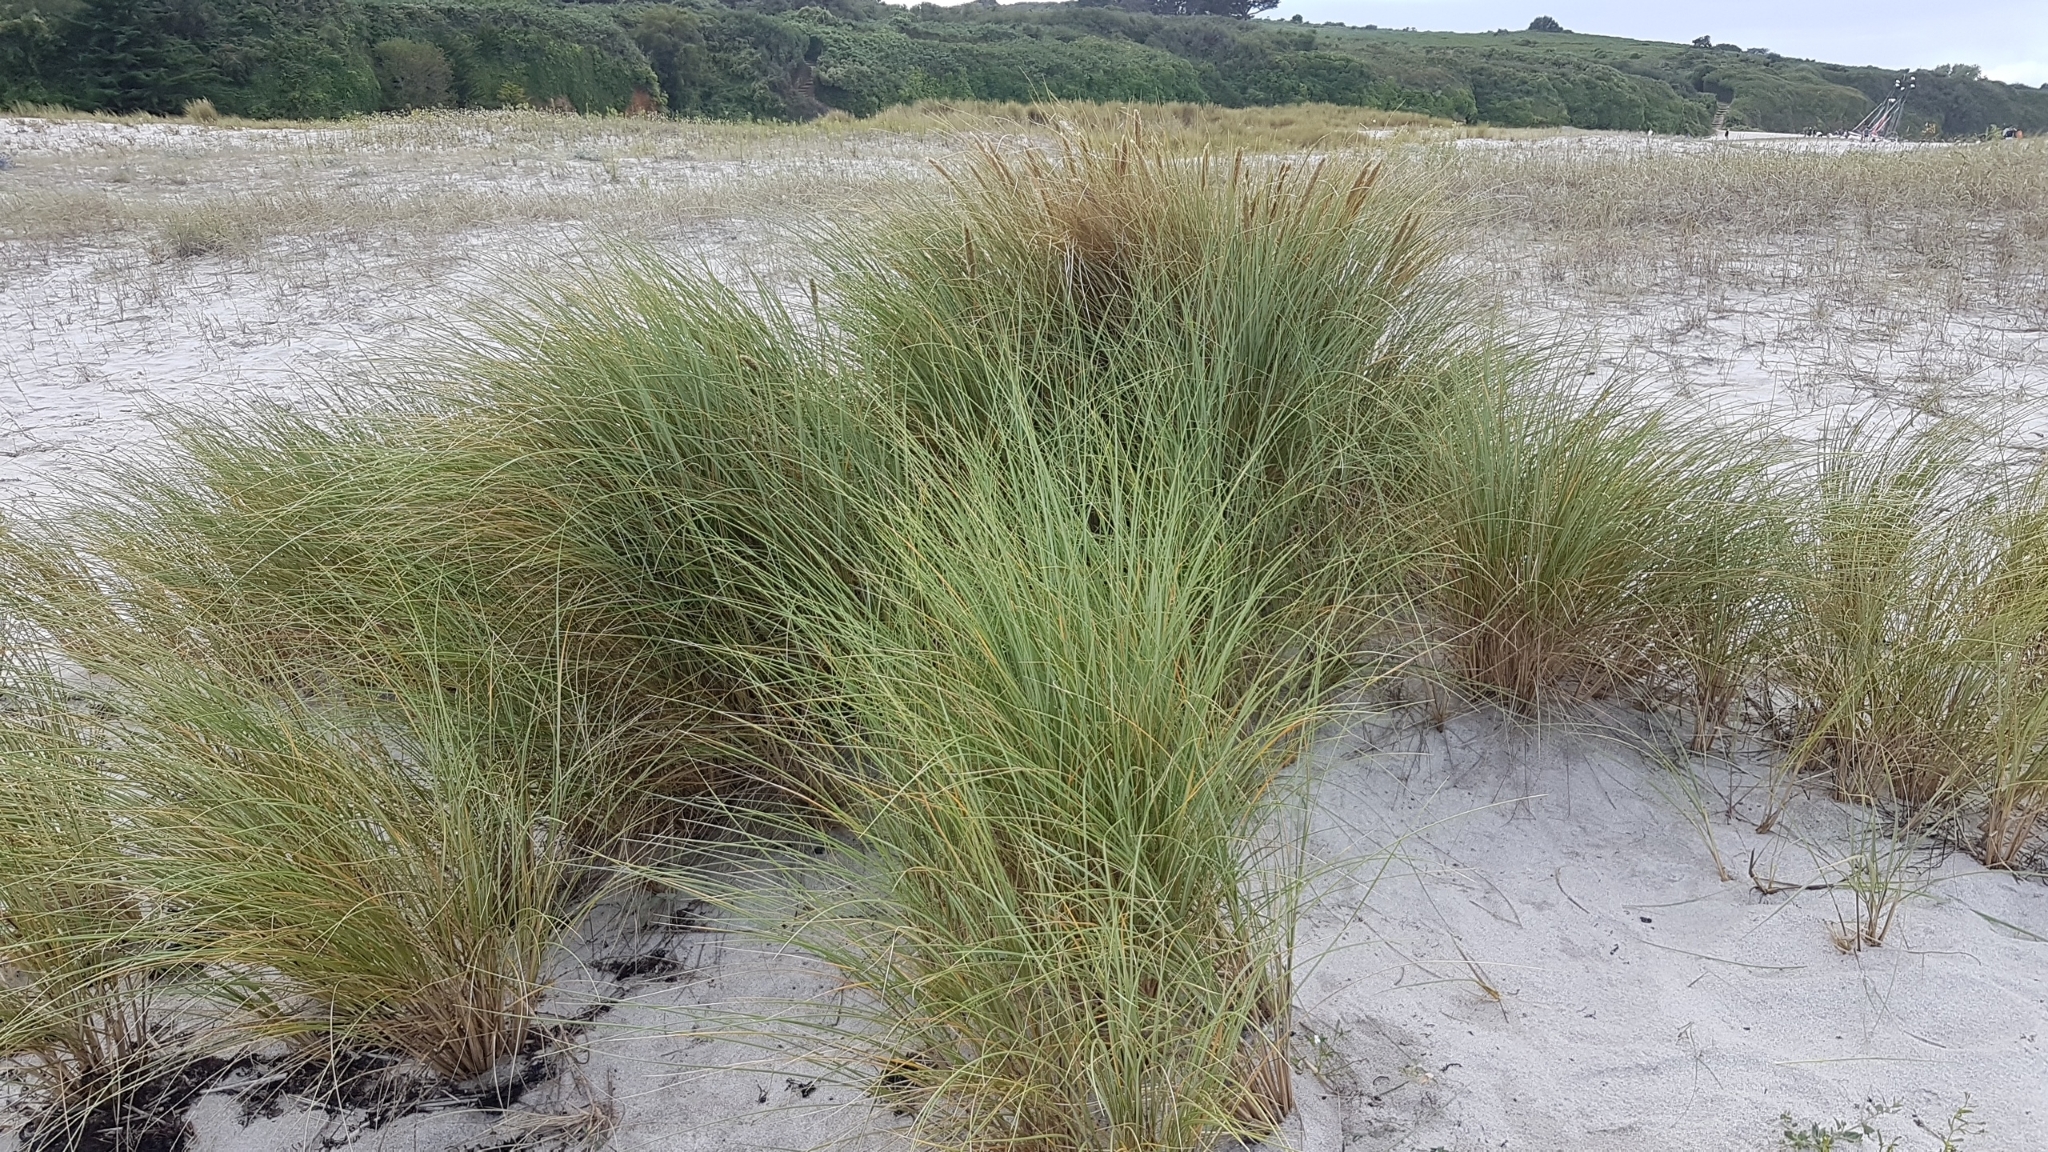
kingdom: Plantae
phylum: Tracheophyta
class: Liliopsida
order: Poales
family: Poaceae
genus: Calamagrostis
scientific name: Calamagrostis arenaria
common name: European beachgrass
